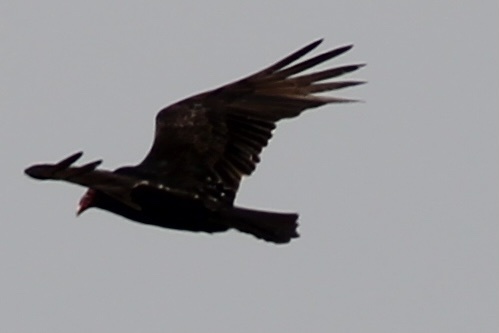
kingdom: Animalia
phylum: Chordata
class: Aves
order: Accipitriformes
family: Cathartidae
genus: Cathartes
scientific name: Cathartes aura
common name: Turkey vulture
